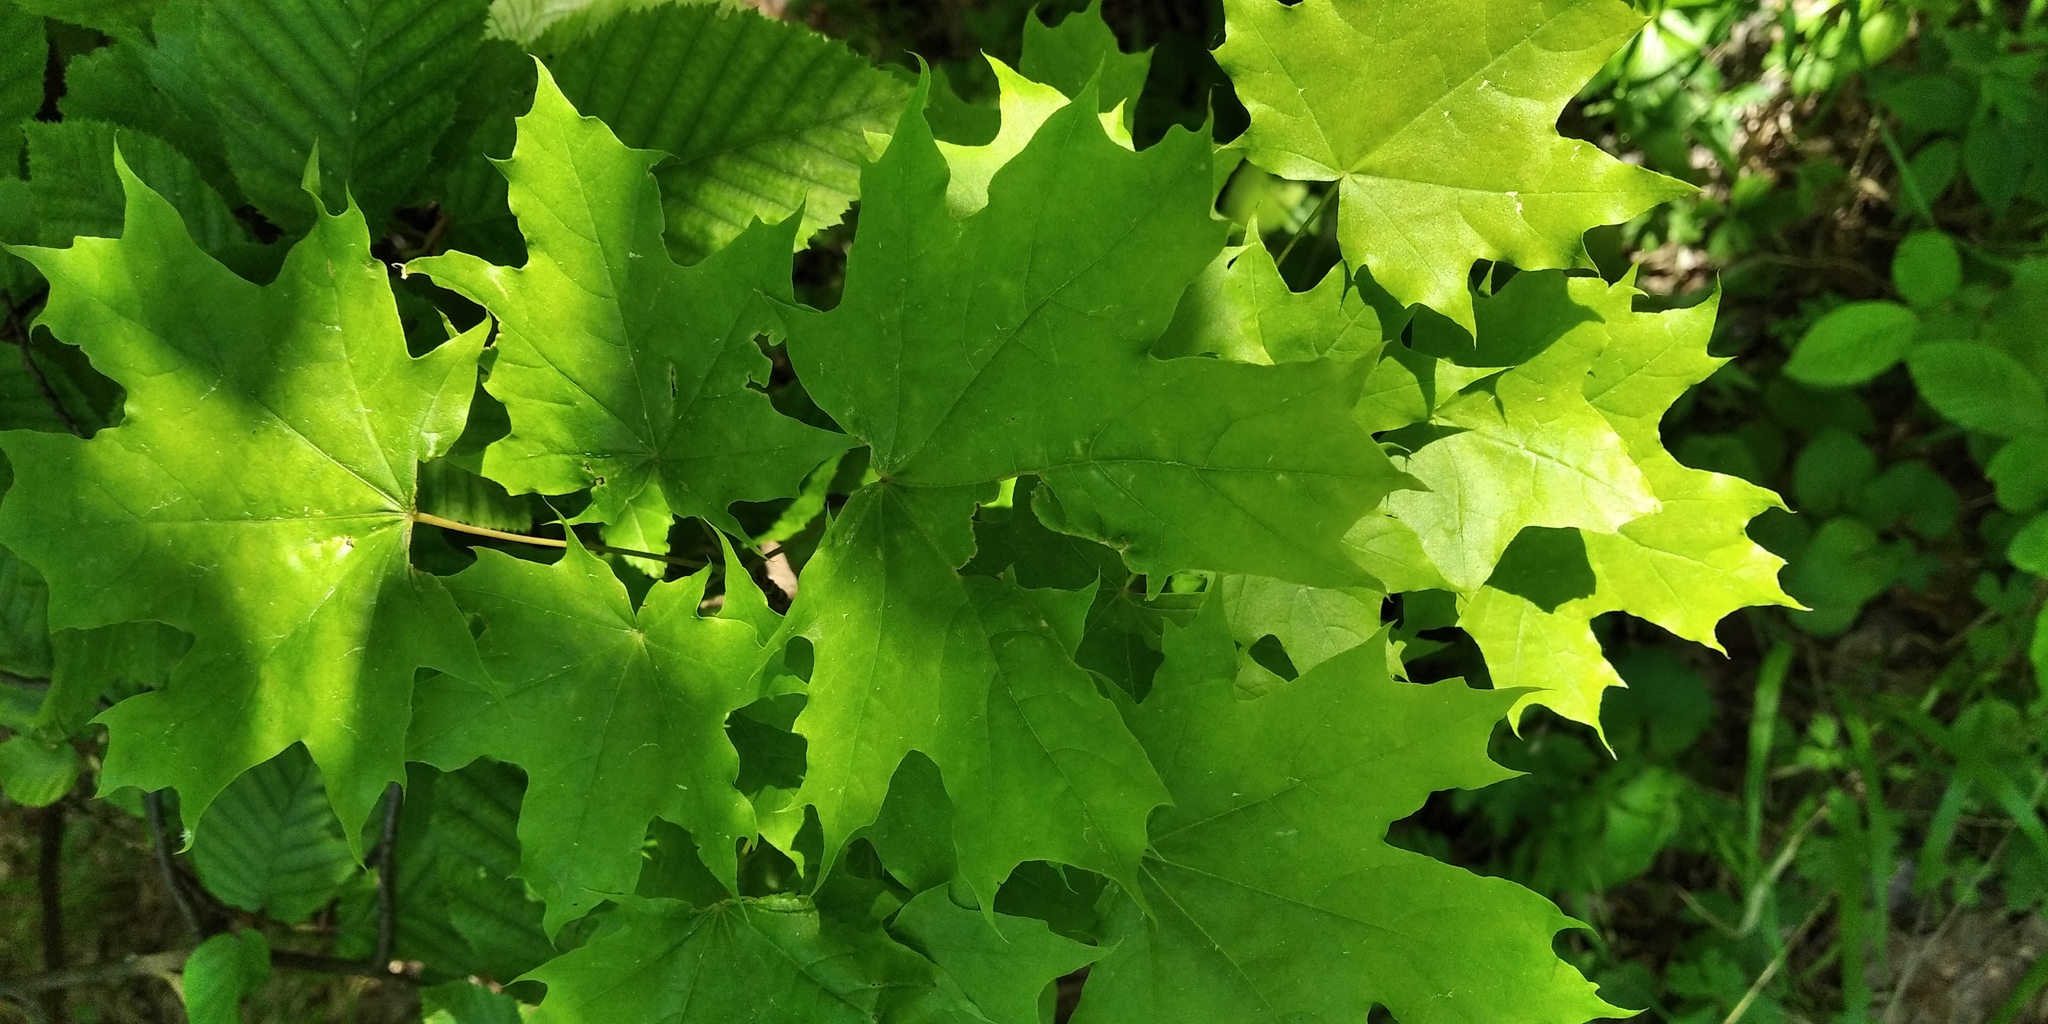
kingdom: Plantae
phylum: Tracheophyta
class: Magnoliopsida
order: Sapindales
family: Sapindaceae
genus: Acer
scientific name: Acer platanoides
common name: Norway maple
